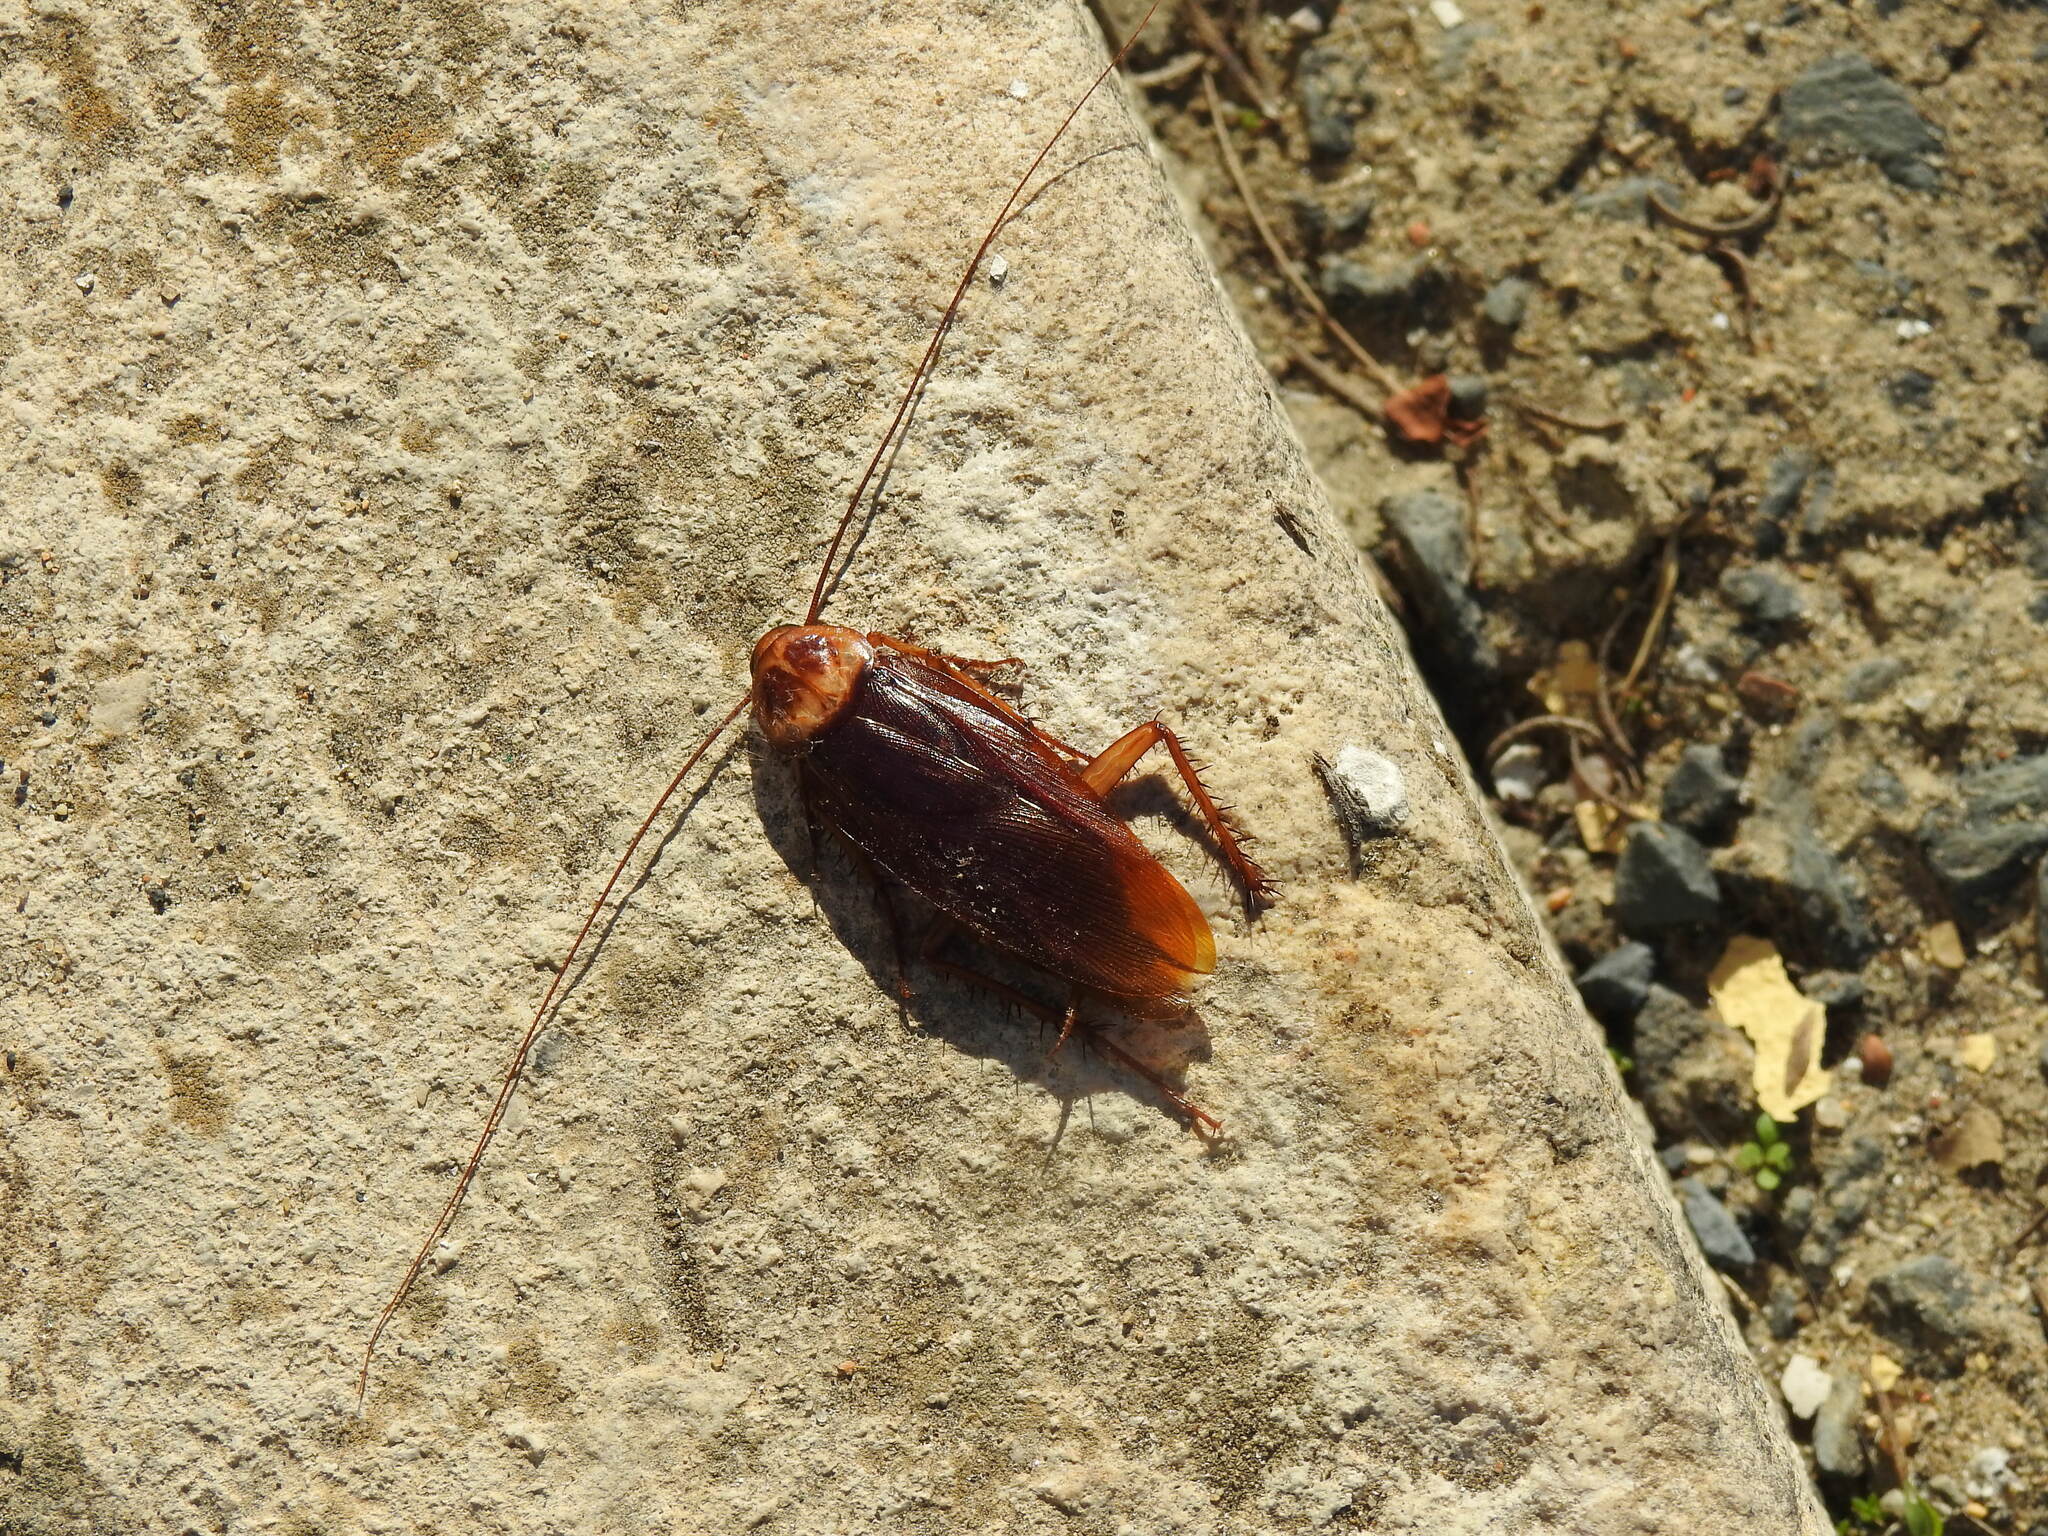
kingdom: Animalia
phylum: Arthropoda
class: Insecta
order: Blattodea
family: Blattidae
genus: Periplaneta
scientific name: Periplaneta americana
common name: American cockroach
